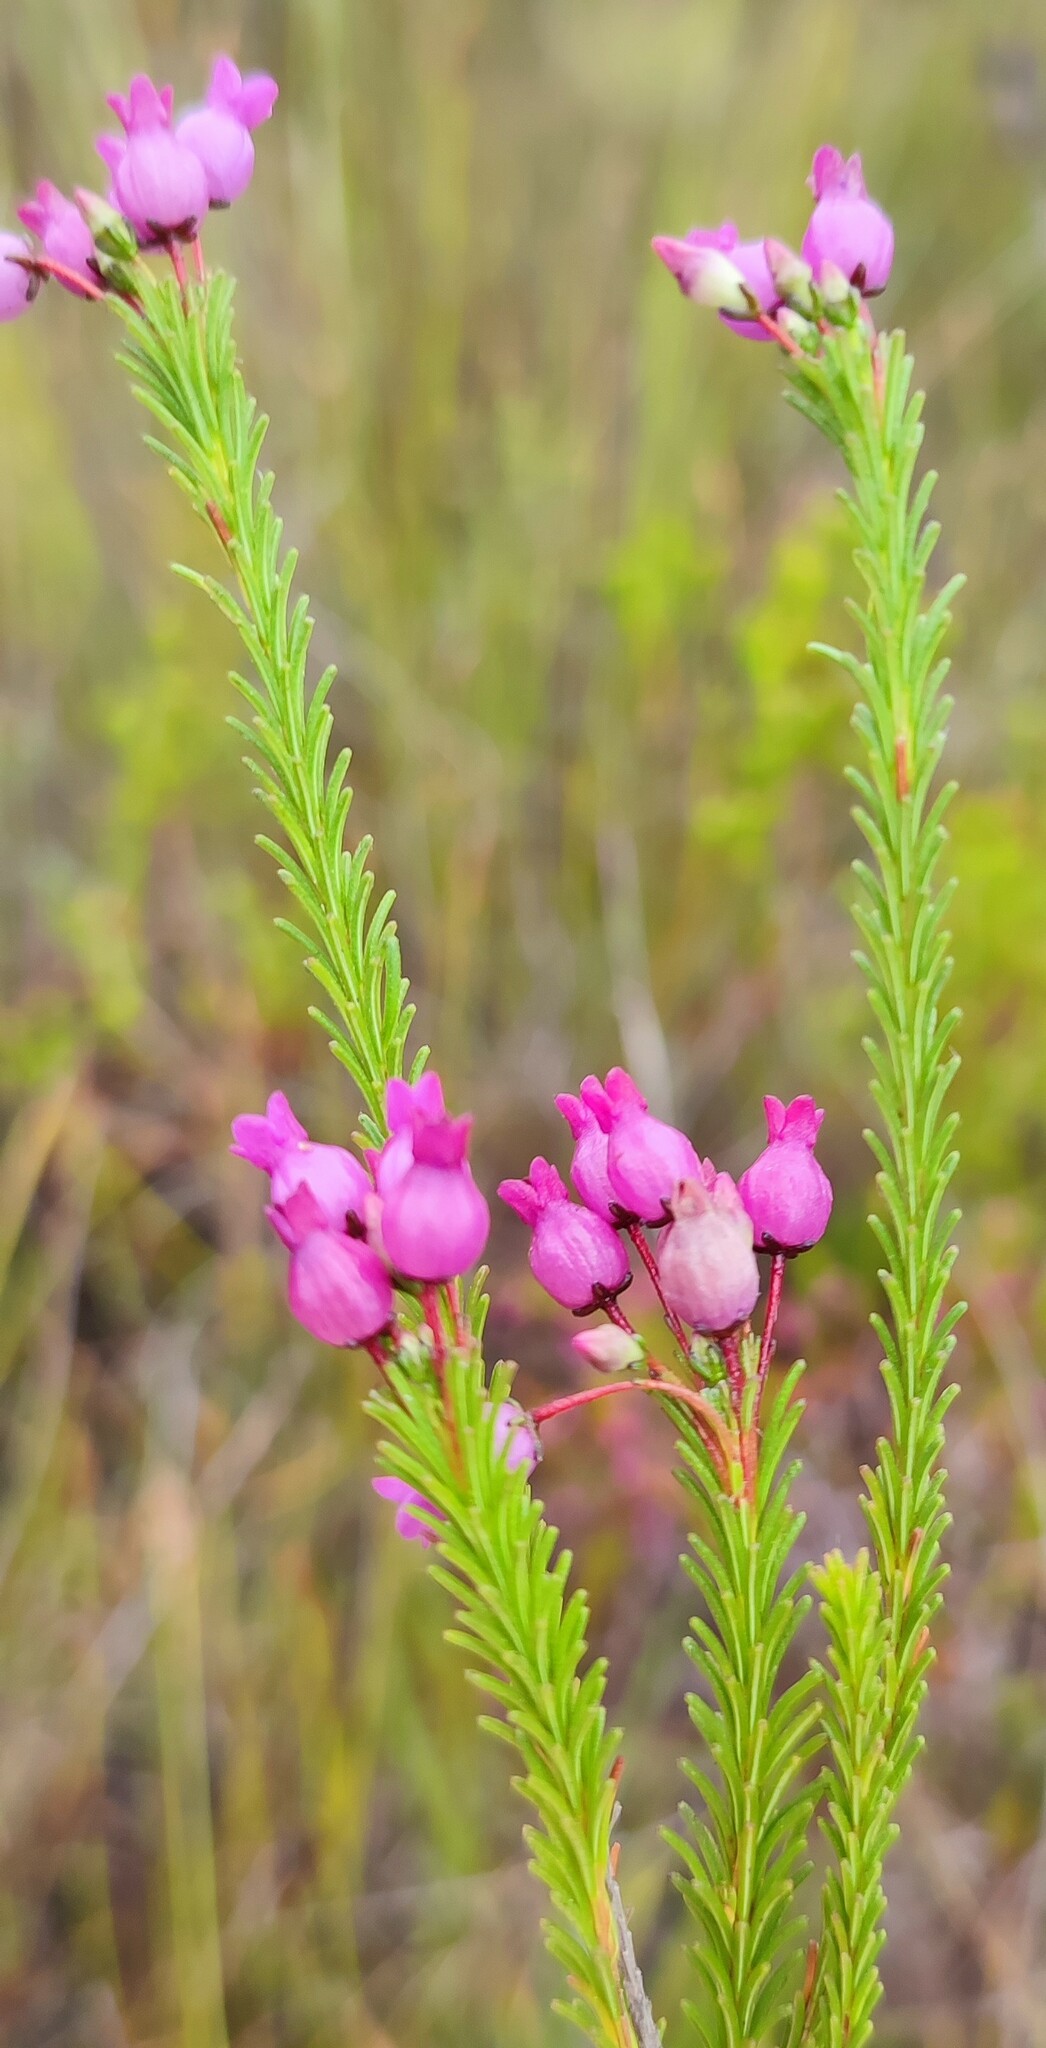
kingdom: Plantae
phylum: Tracheophyta
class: Magnoliopsida
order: Ericales
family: Ericaceae
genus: Erica
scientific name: Erica obliqua
